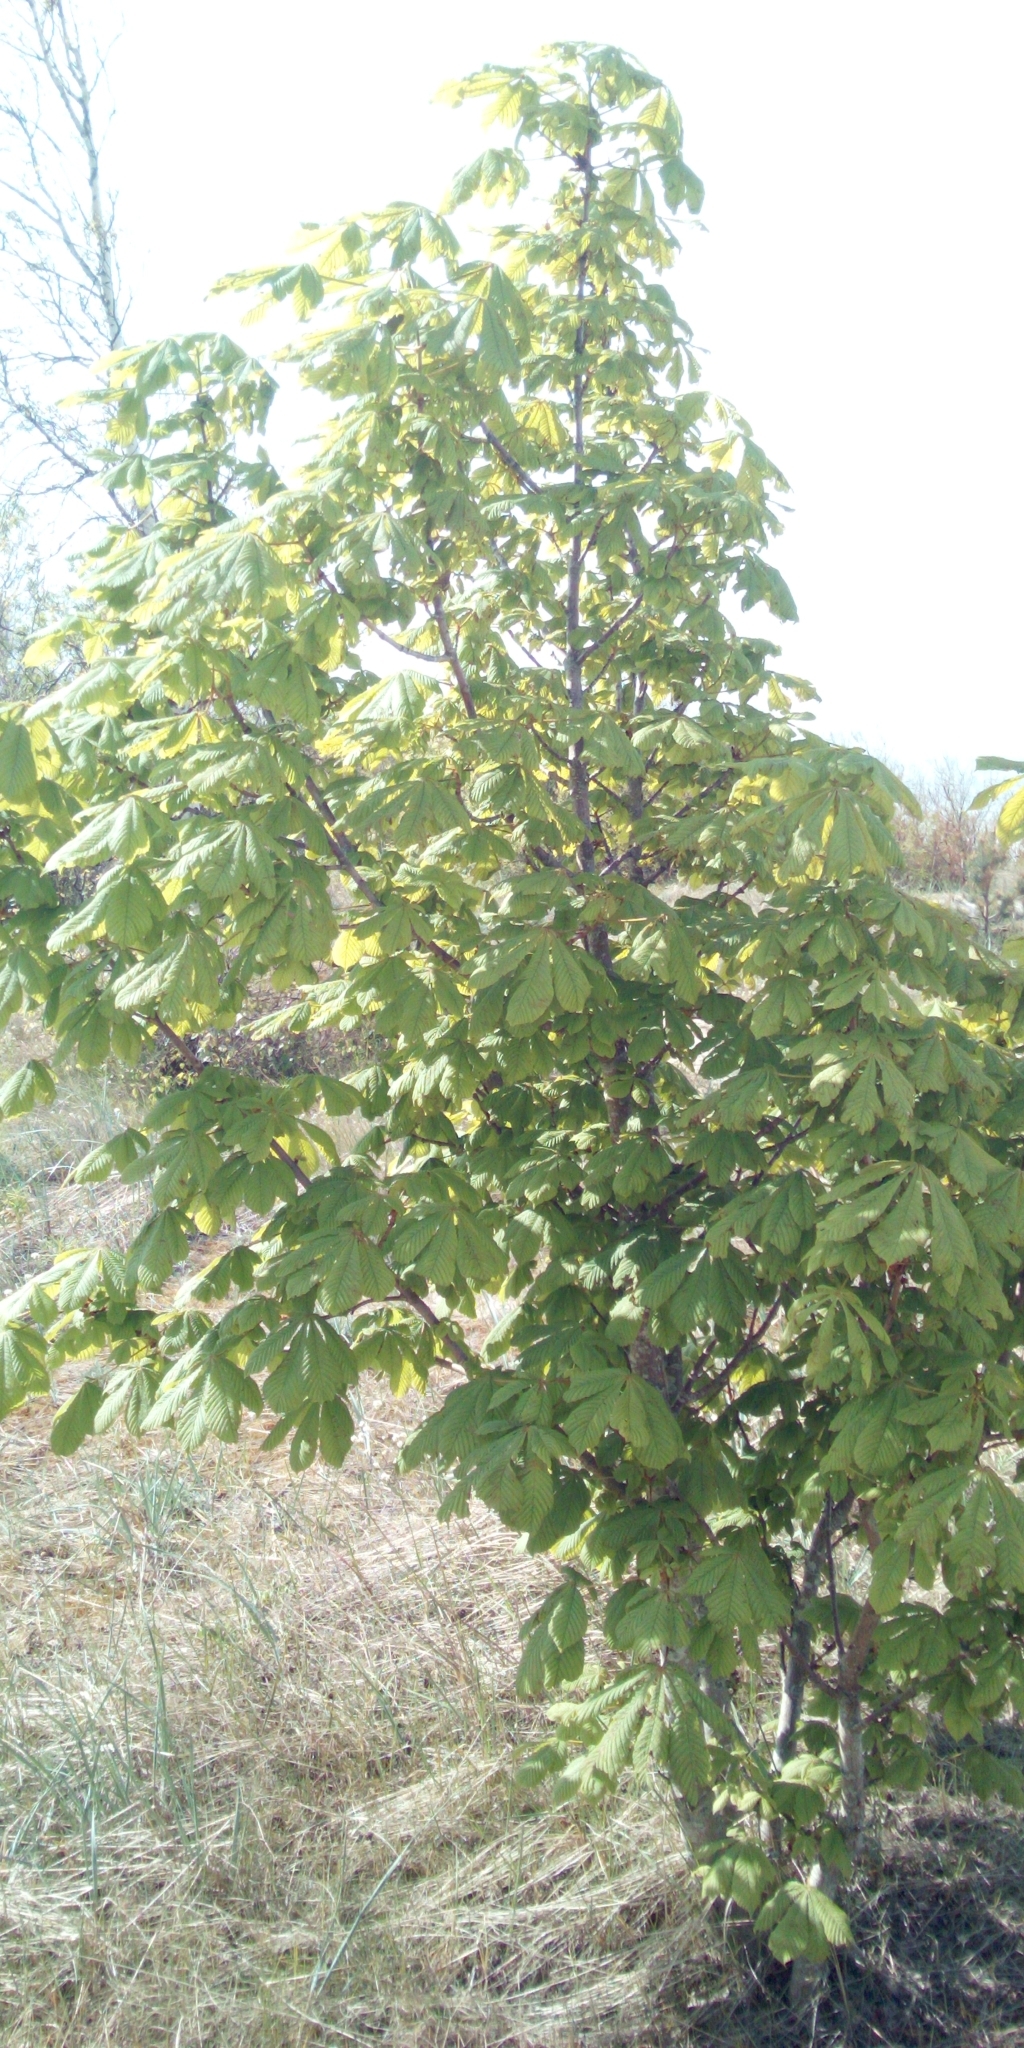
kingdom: Plantae
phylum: Tracheophyta
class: Magnoliopsida
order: Sapindales
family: Sapindaceae
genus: Aesculus
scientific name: Aesculus hippocastanum
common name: Horse-chestnut
